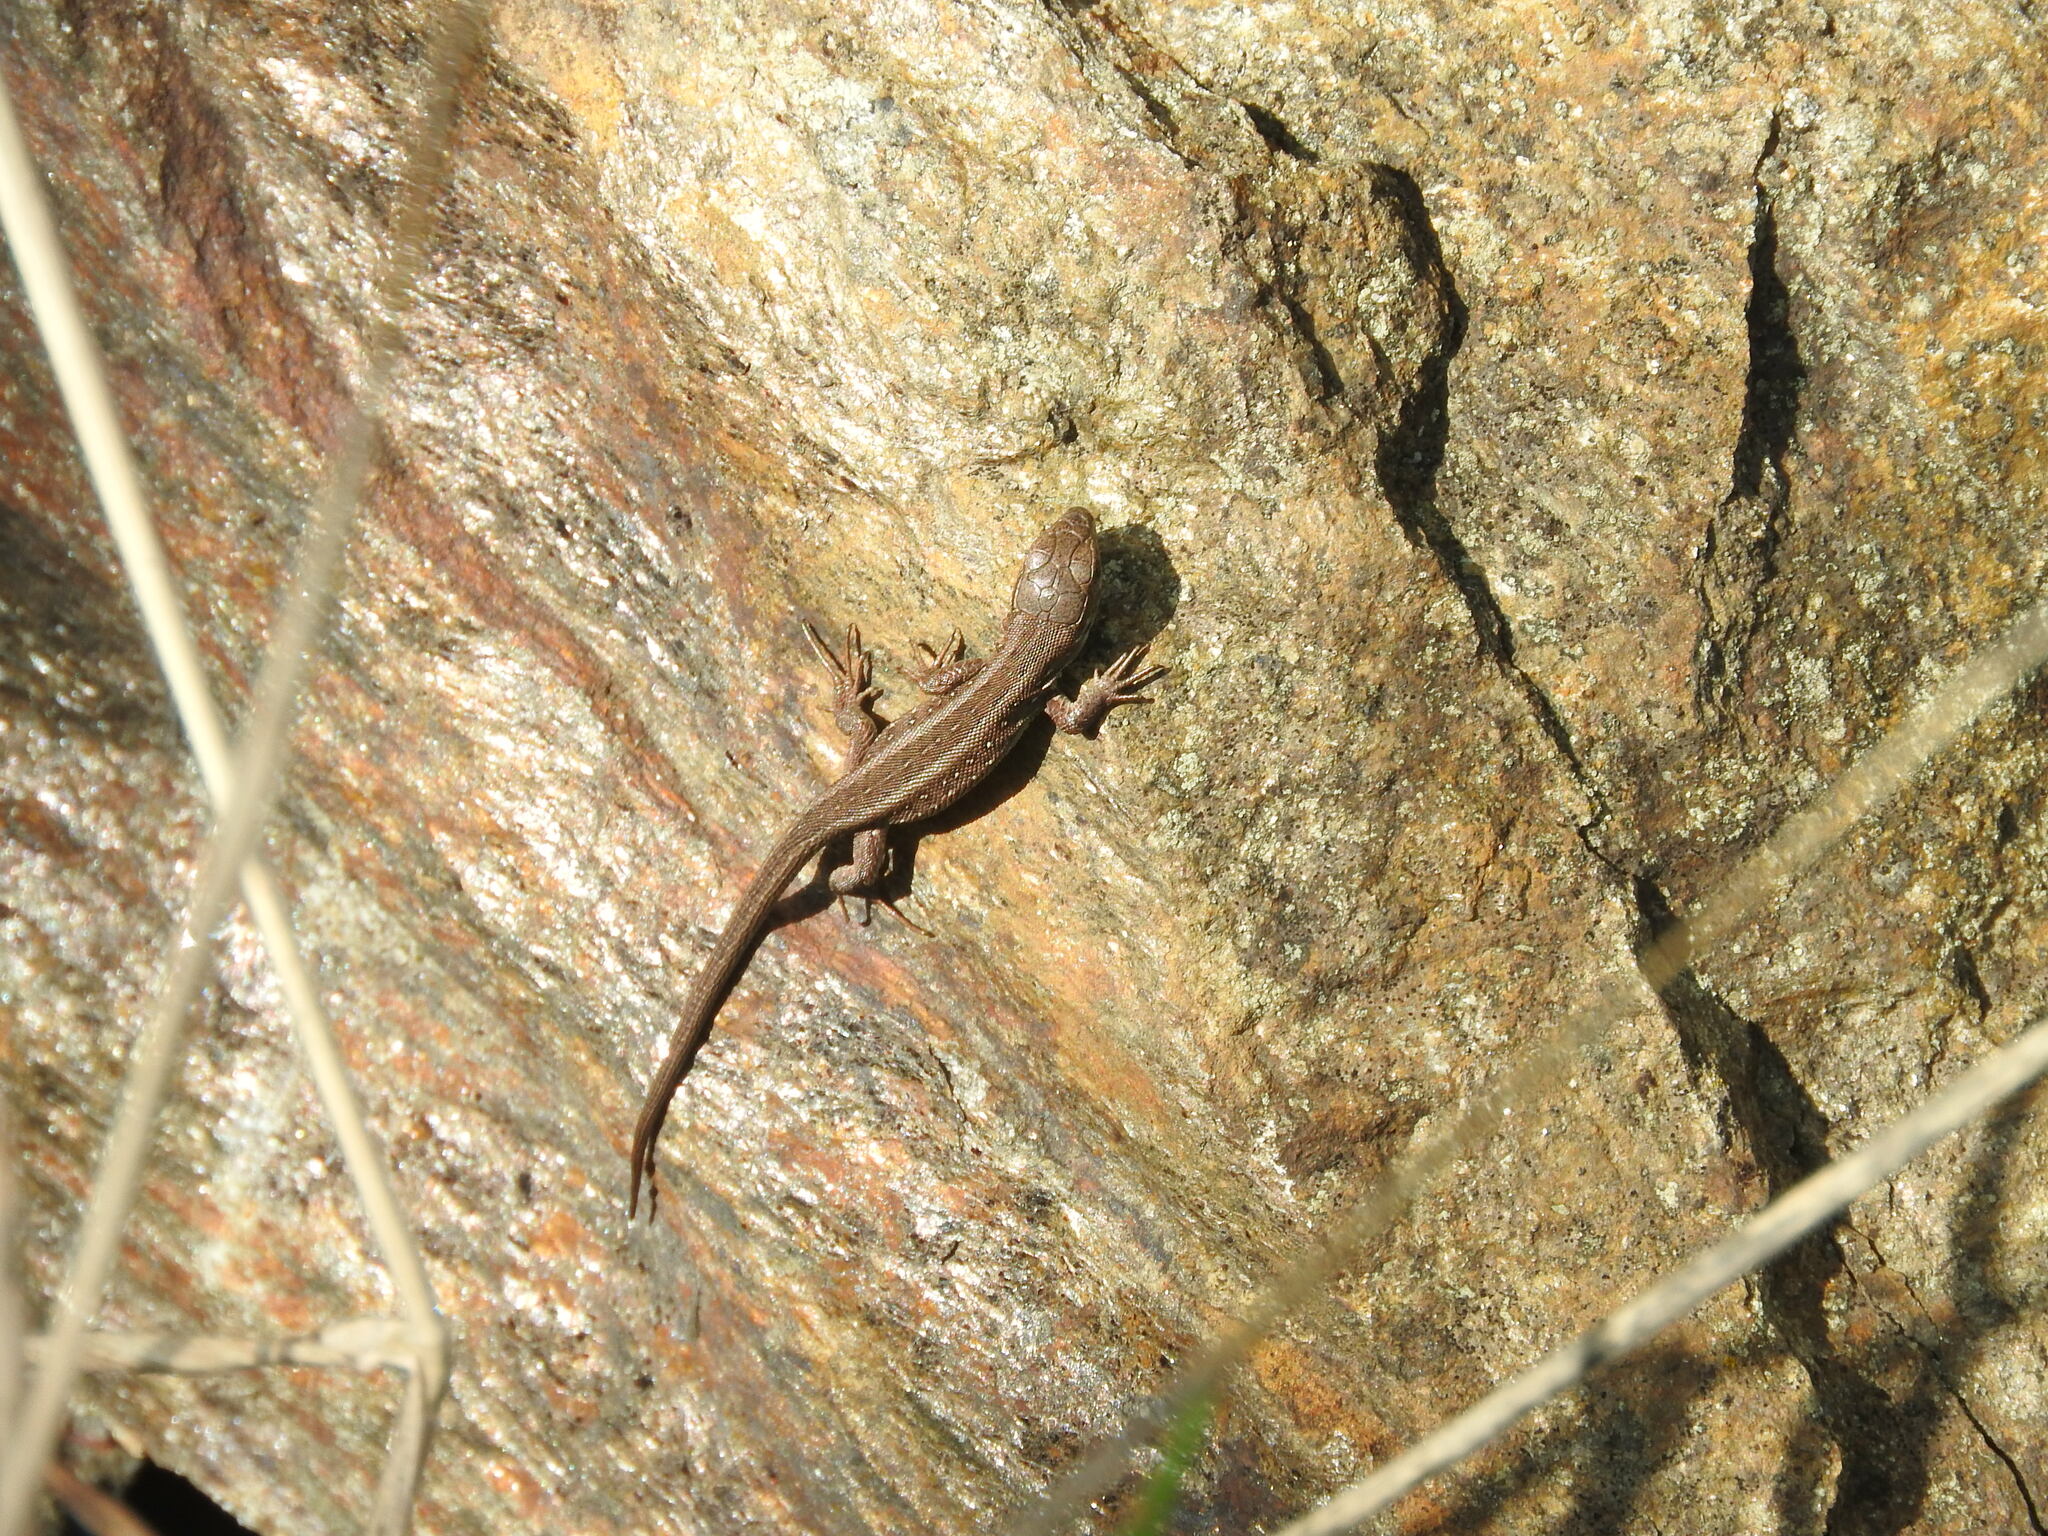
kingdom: Animalia
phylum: Chordata
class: Squamata
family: Lacertidae
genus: Lacerta
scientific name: Lacerta agilis
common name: Sand lizard
